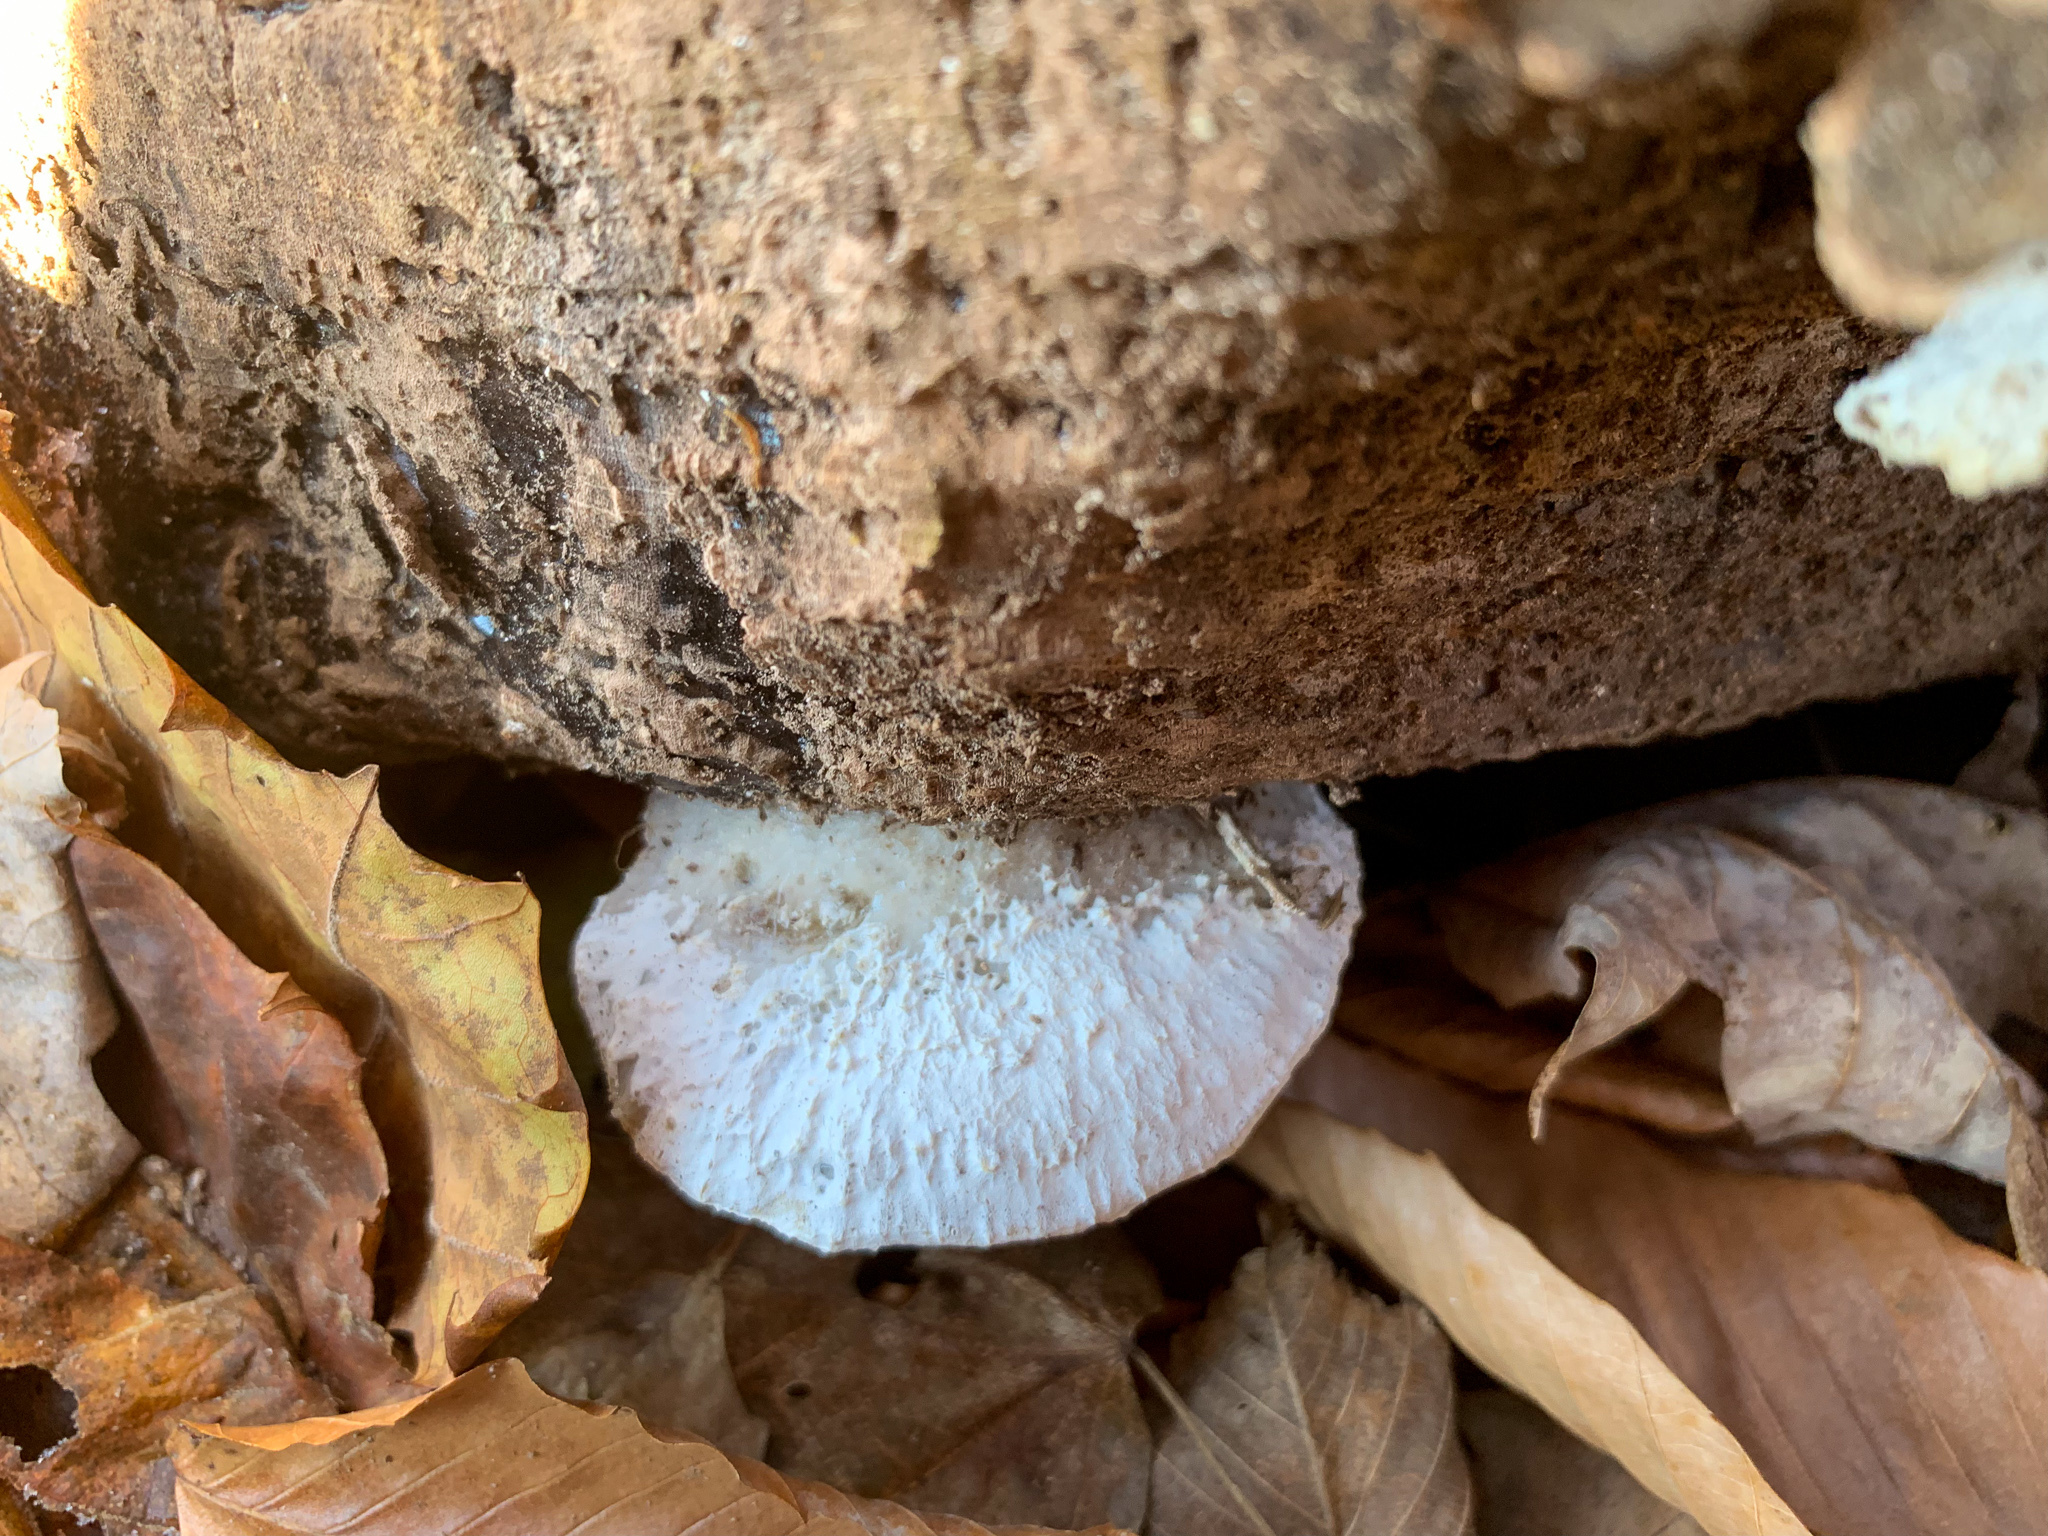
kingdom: Fungi
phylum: Basidiomycota
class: Agaricomycetes
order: Polyporales
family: Incrustoporiaceae
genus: Tyromyces
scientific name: Tyromyces chioneus
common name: White cheese polypore
